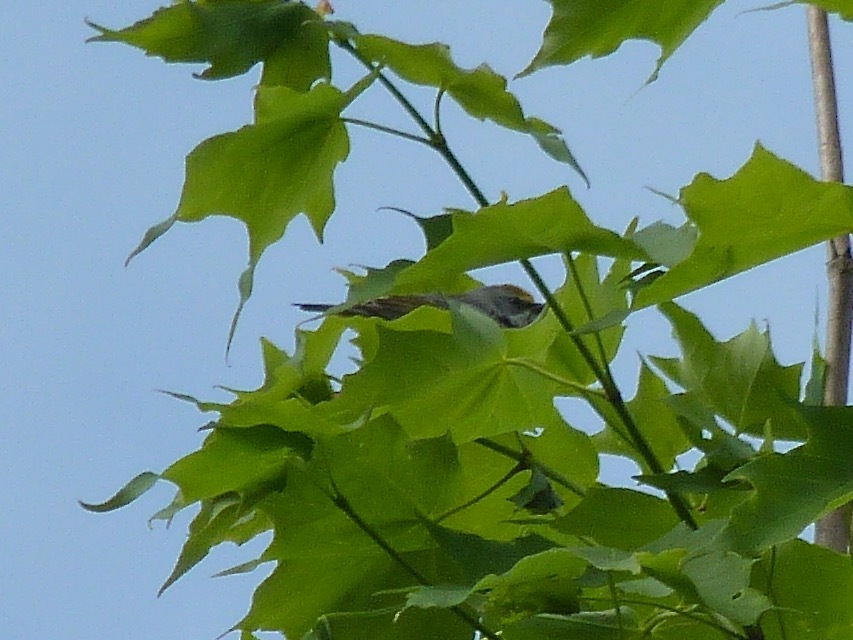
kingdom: Animalia
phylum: Chordata
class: Aves
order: Passeriformes
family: Parulidae
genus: Vermivora
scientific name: Vermivora chrysoptera
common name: Golden-winged warbler
